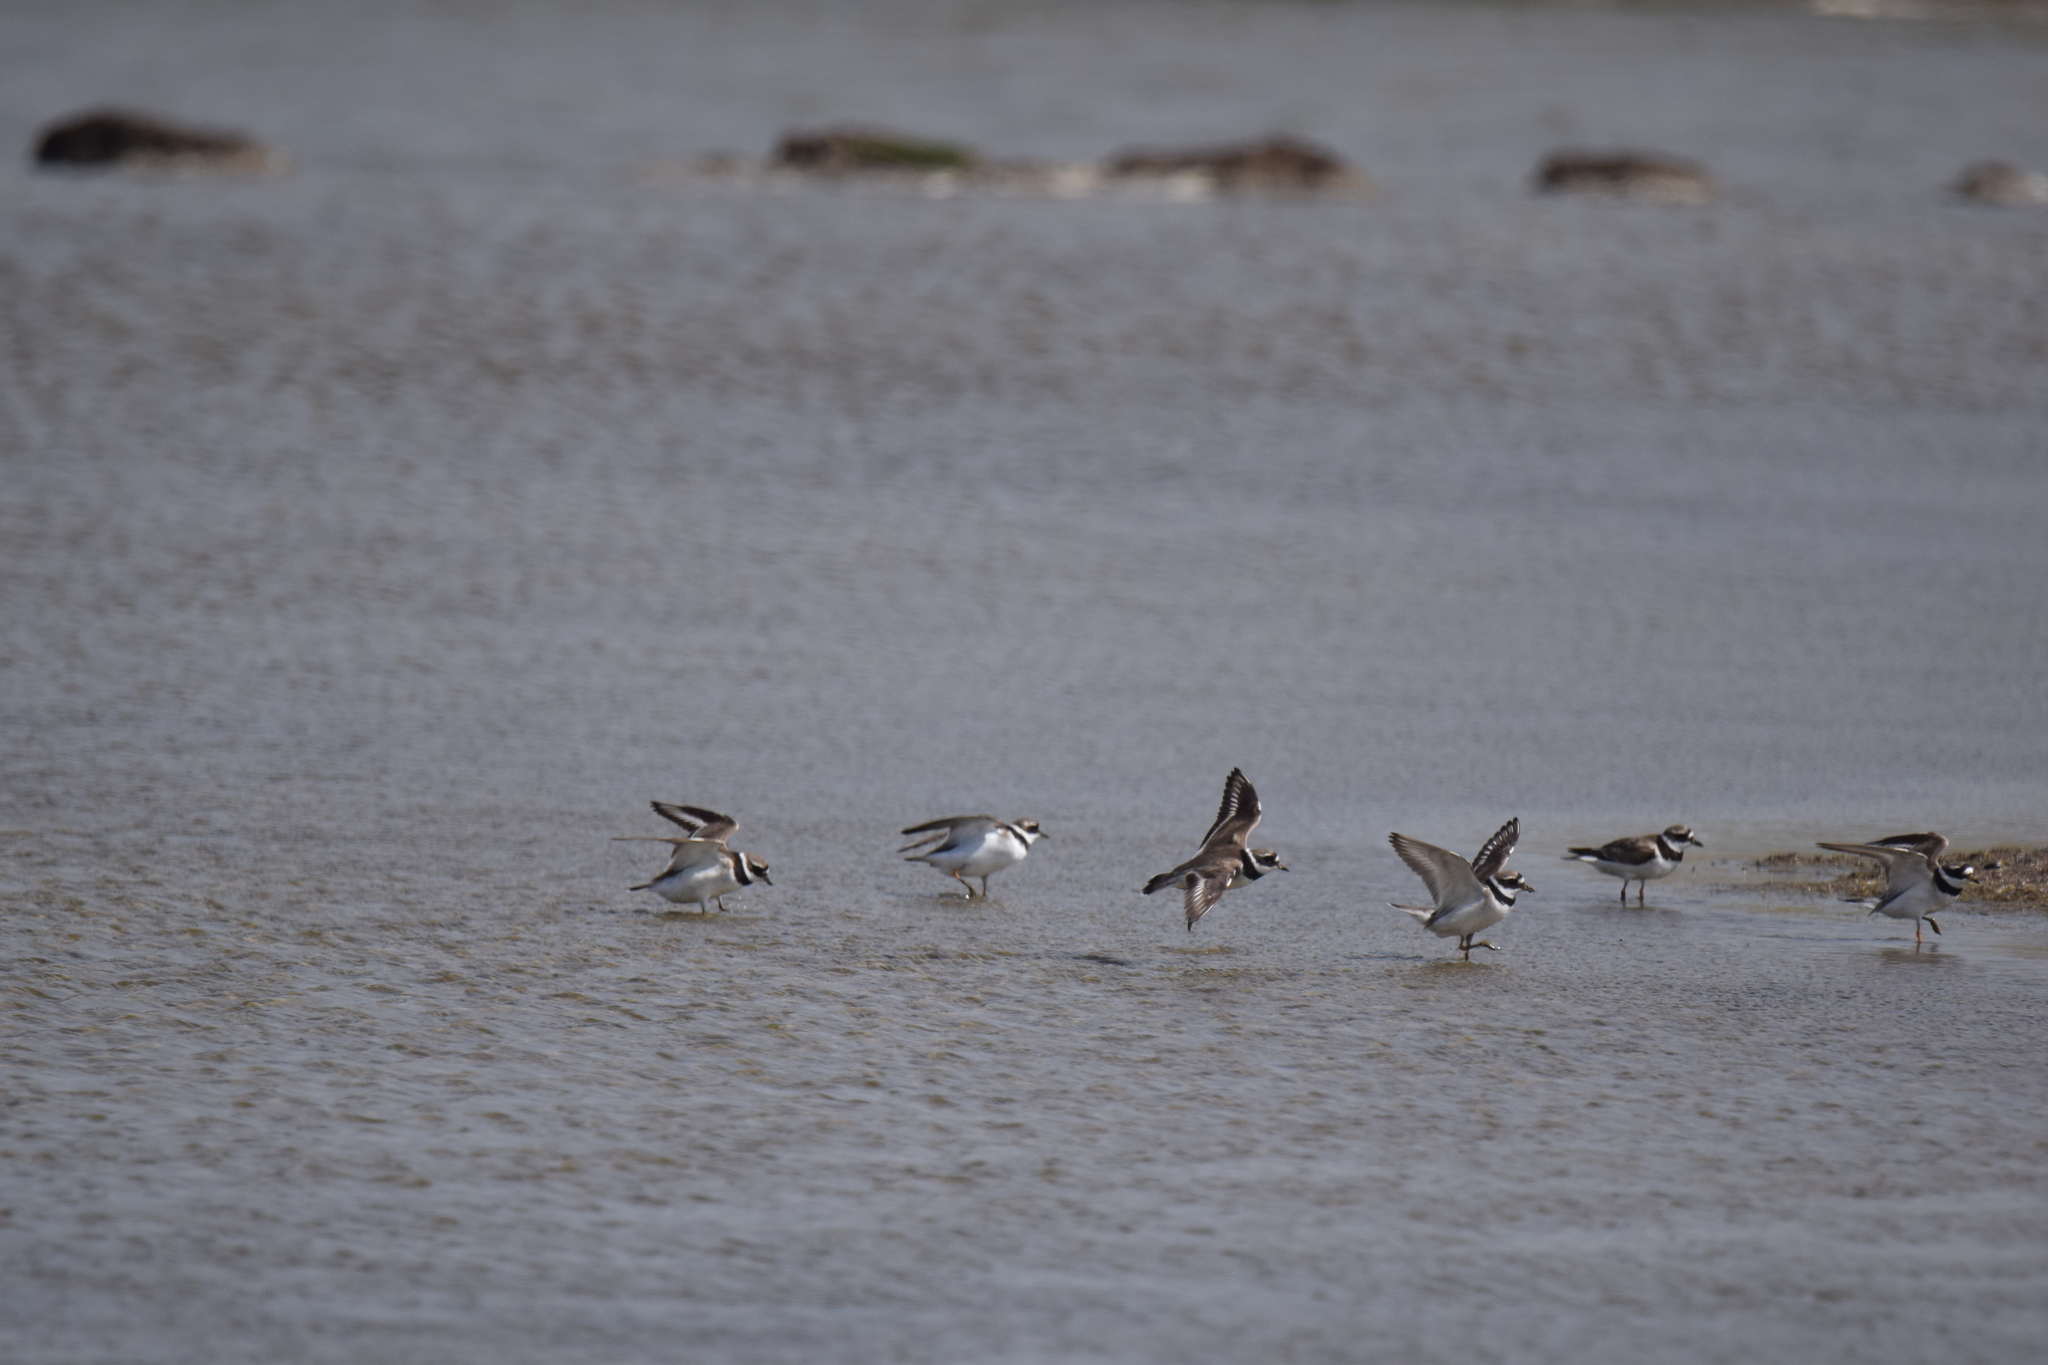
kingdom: Animalia
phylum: Chordata
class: Aves
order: Charadriiformes
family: Charadriidae
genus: Charadrius
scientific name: Charadrius hiaticula
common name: Common ringed plover
